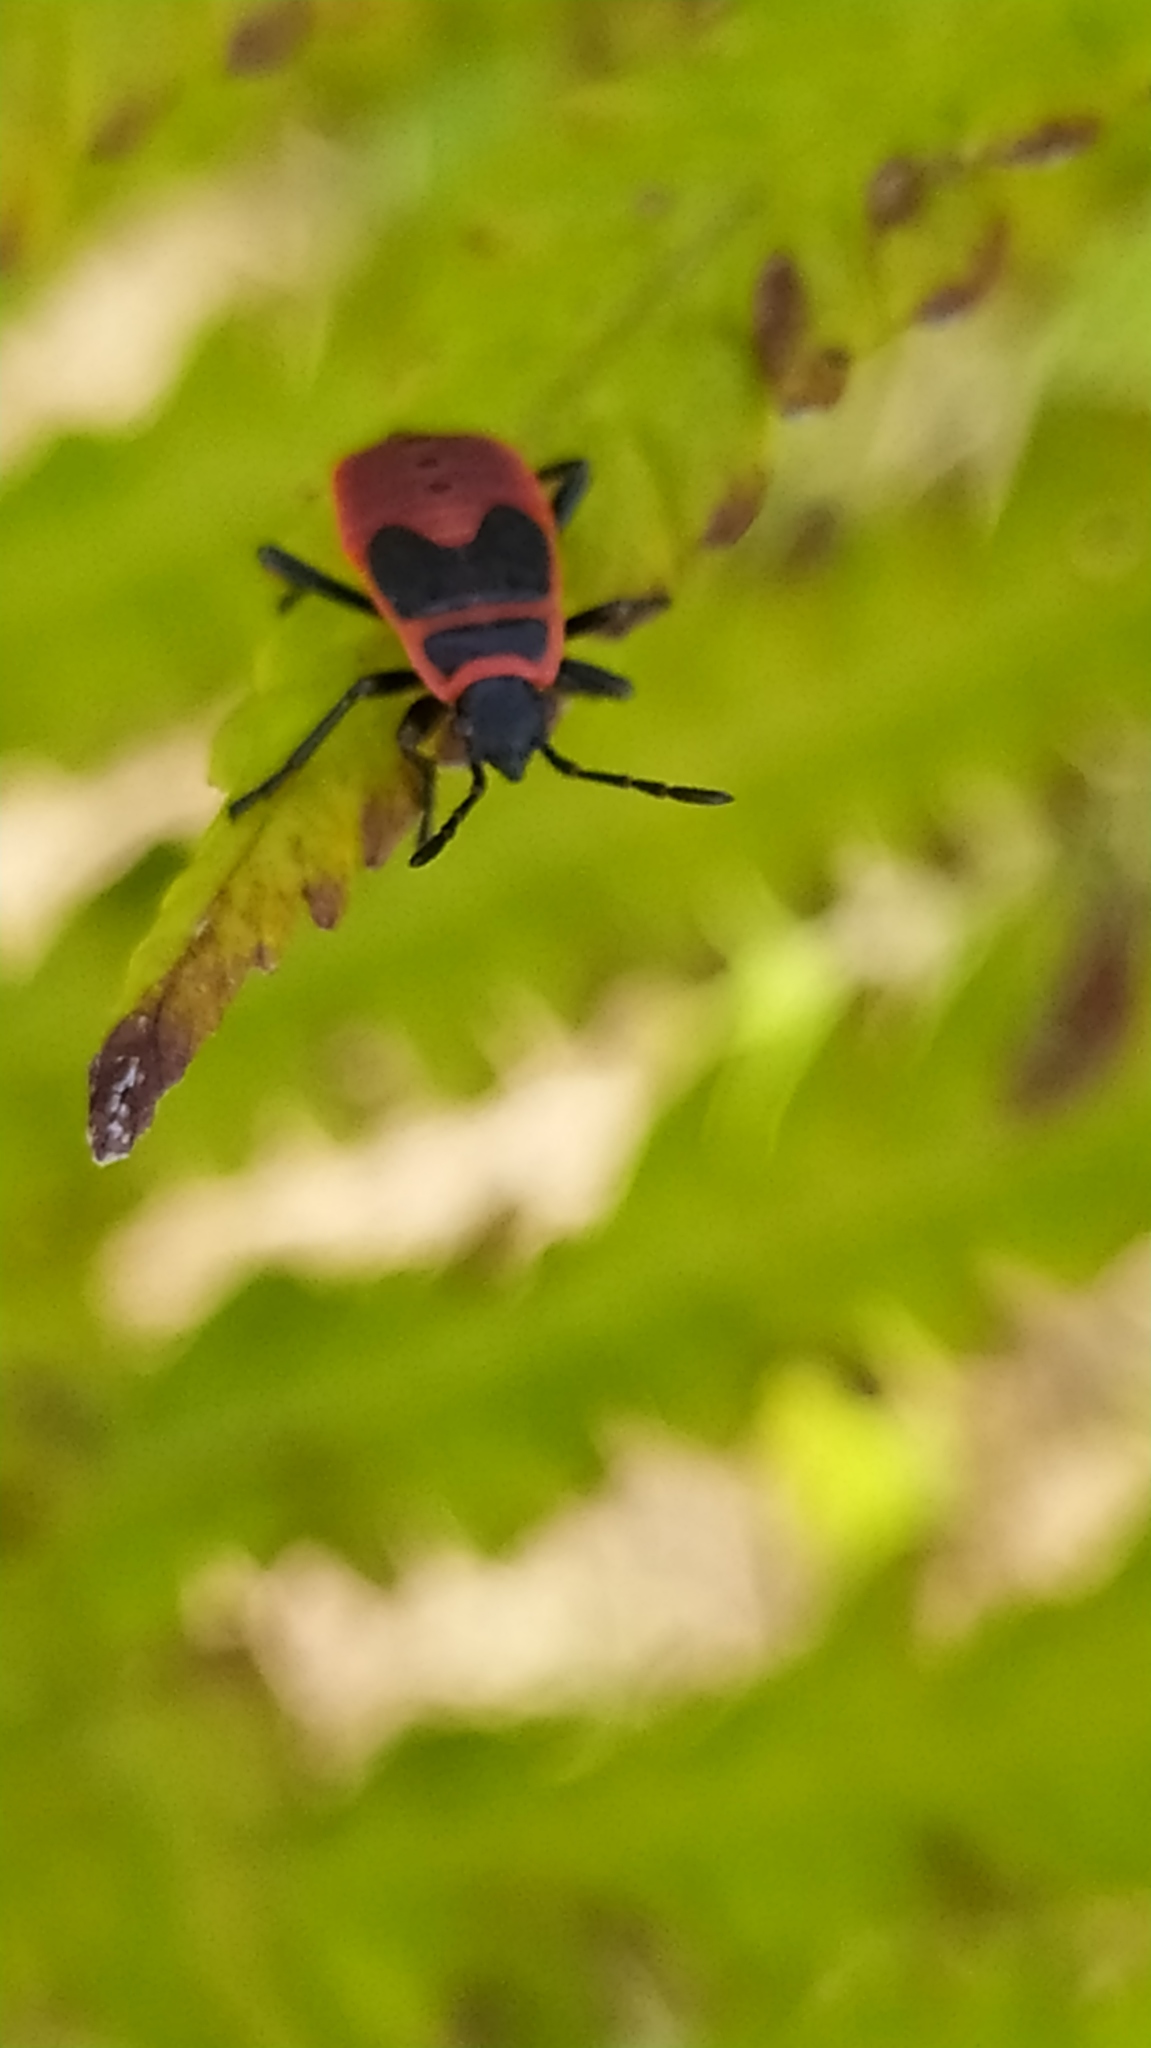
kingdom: Animalia
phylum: Arthropoda
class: Insecta
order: Hemiptera
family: Pyrrhocoridae
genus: Pyrrhocoris
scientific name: Pyrrhocoris apterus
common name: Firebug
